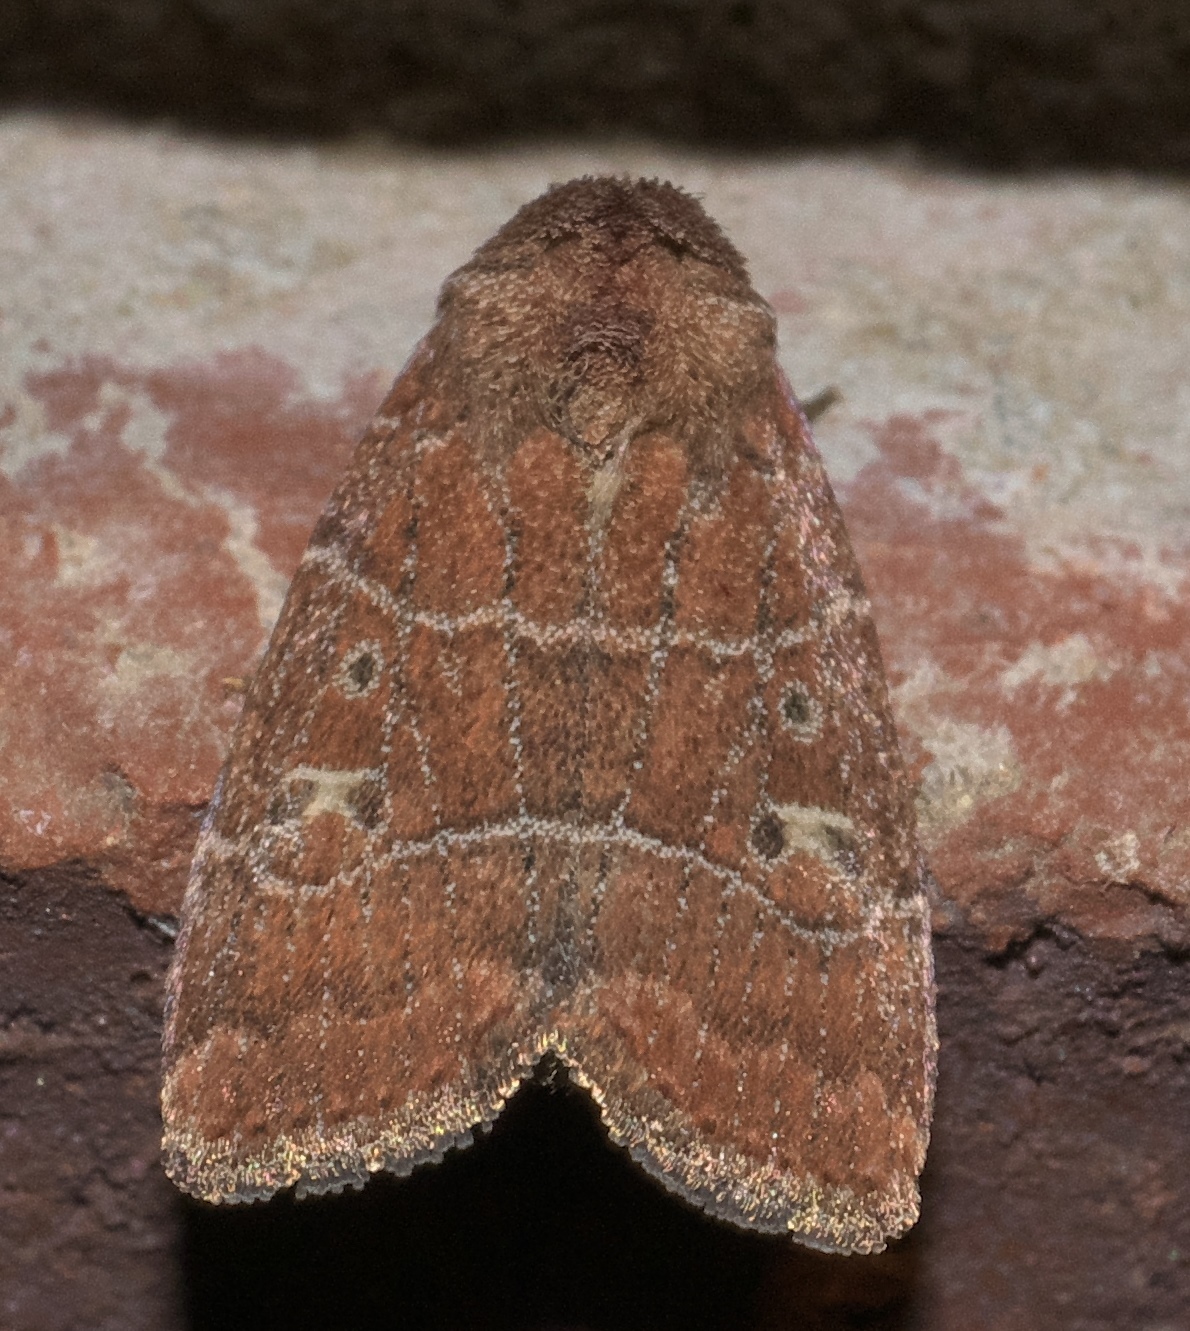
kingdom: Animalia
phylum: Arthropoda
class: Insecta
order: Lepidoptera
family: Noctuidae
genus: Elaphria
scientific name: Elaphria grata
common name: Grateful midget moth
